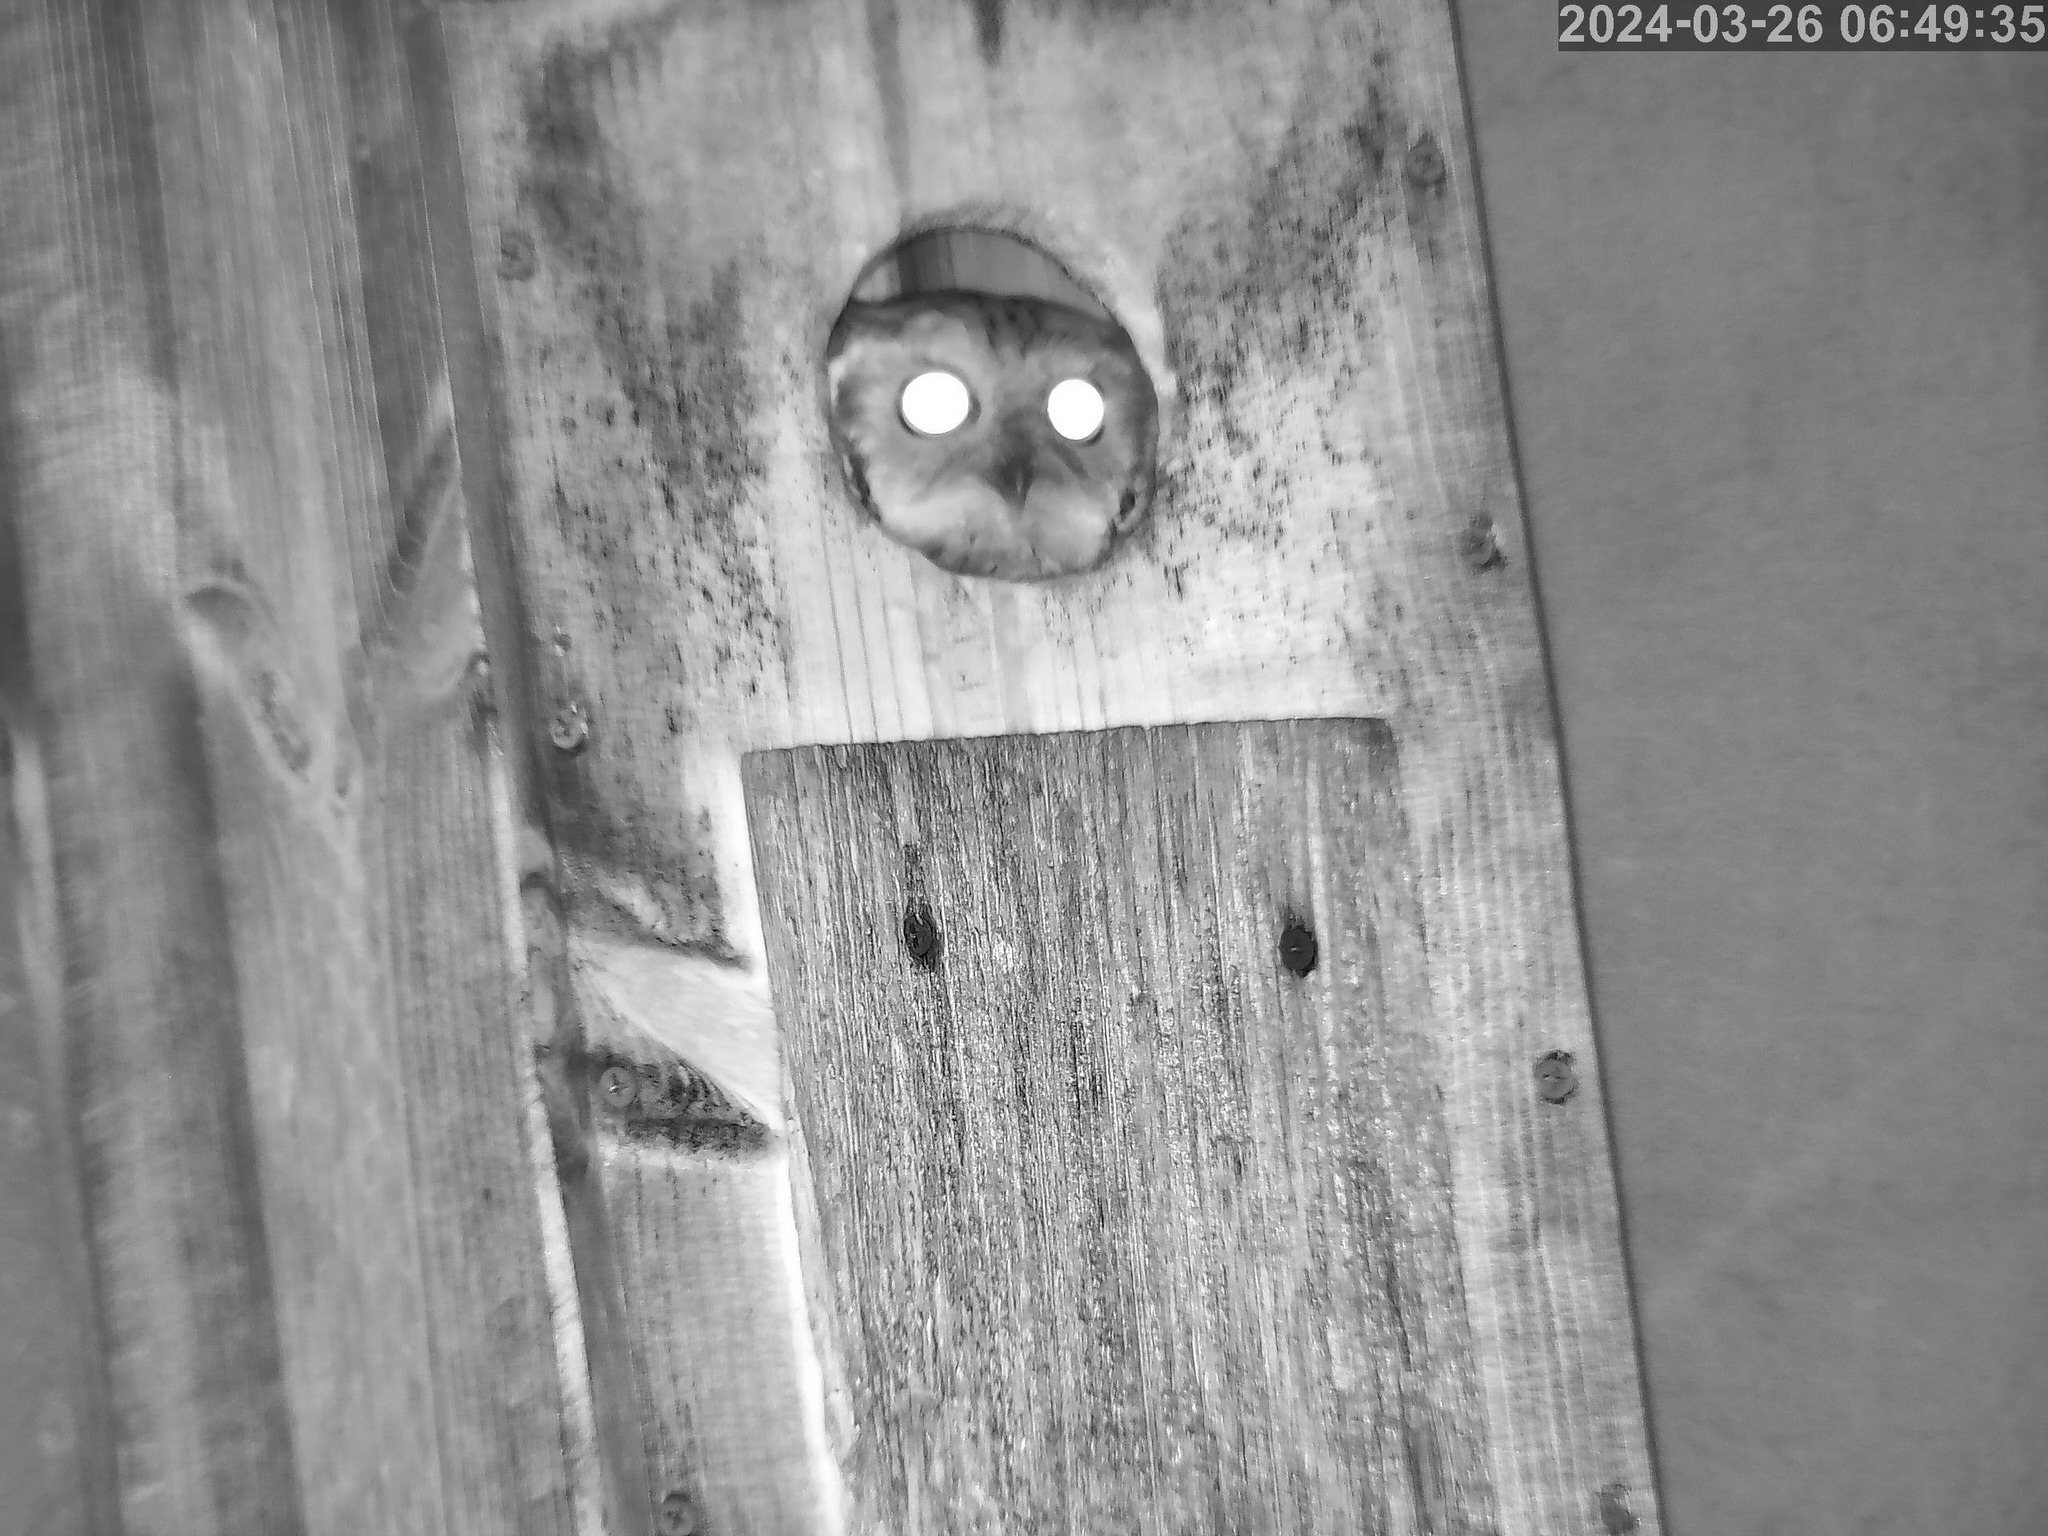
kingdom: Animalia
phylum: Chordata
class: Aves
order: Strigiformes
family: Strigidae
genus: Megascops
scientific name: Megascops asio
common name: Eastern screech-owl
